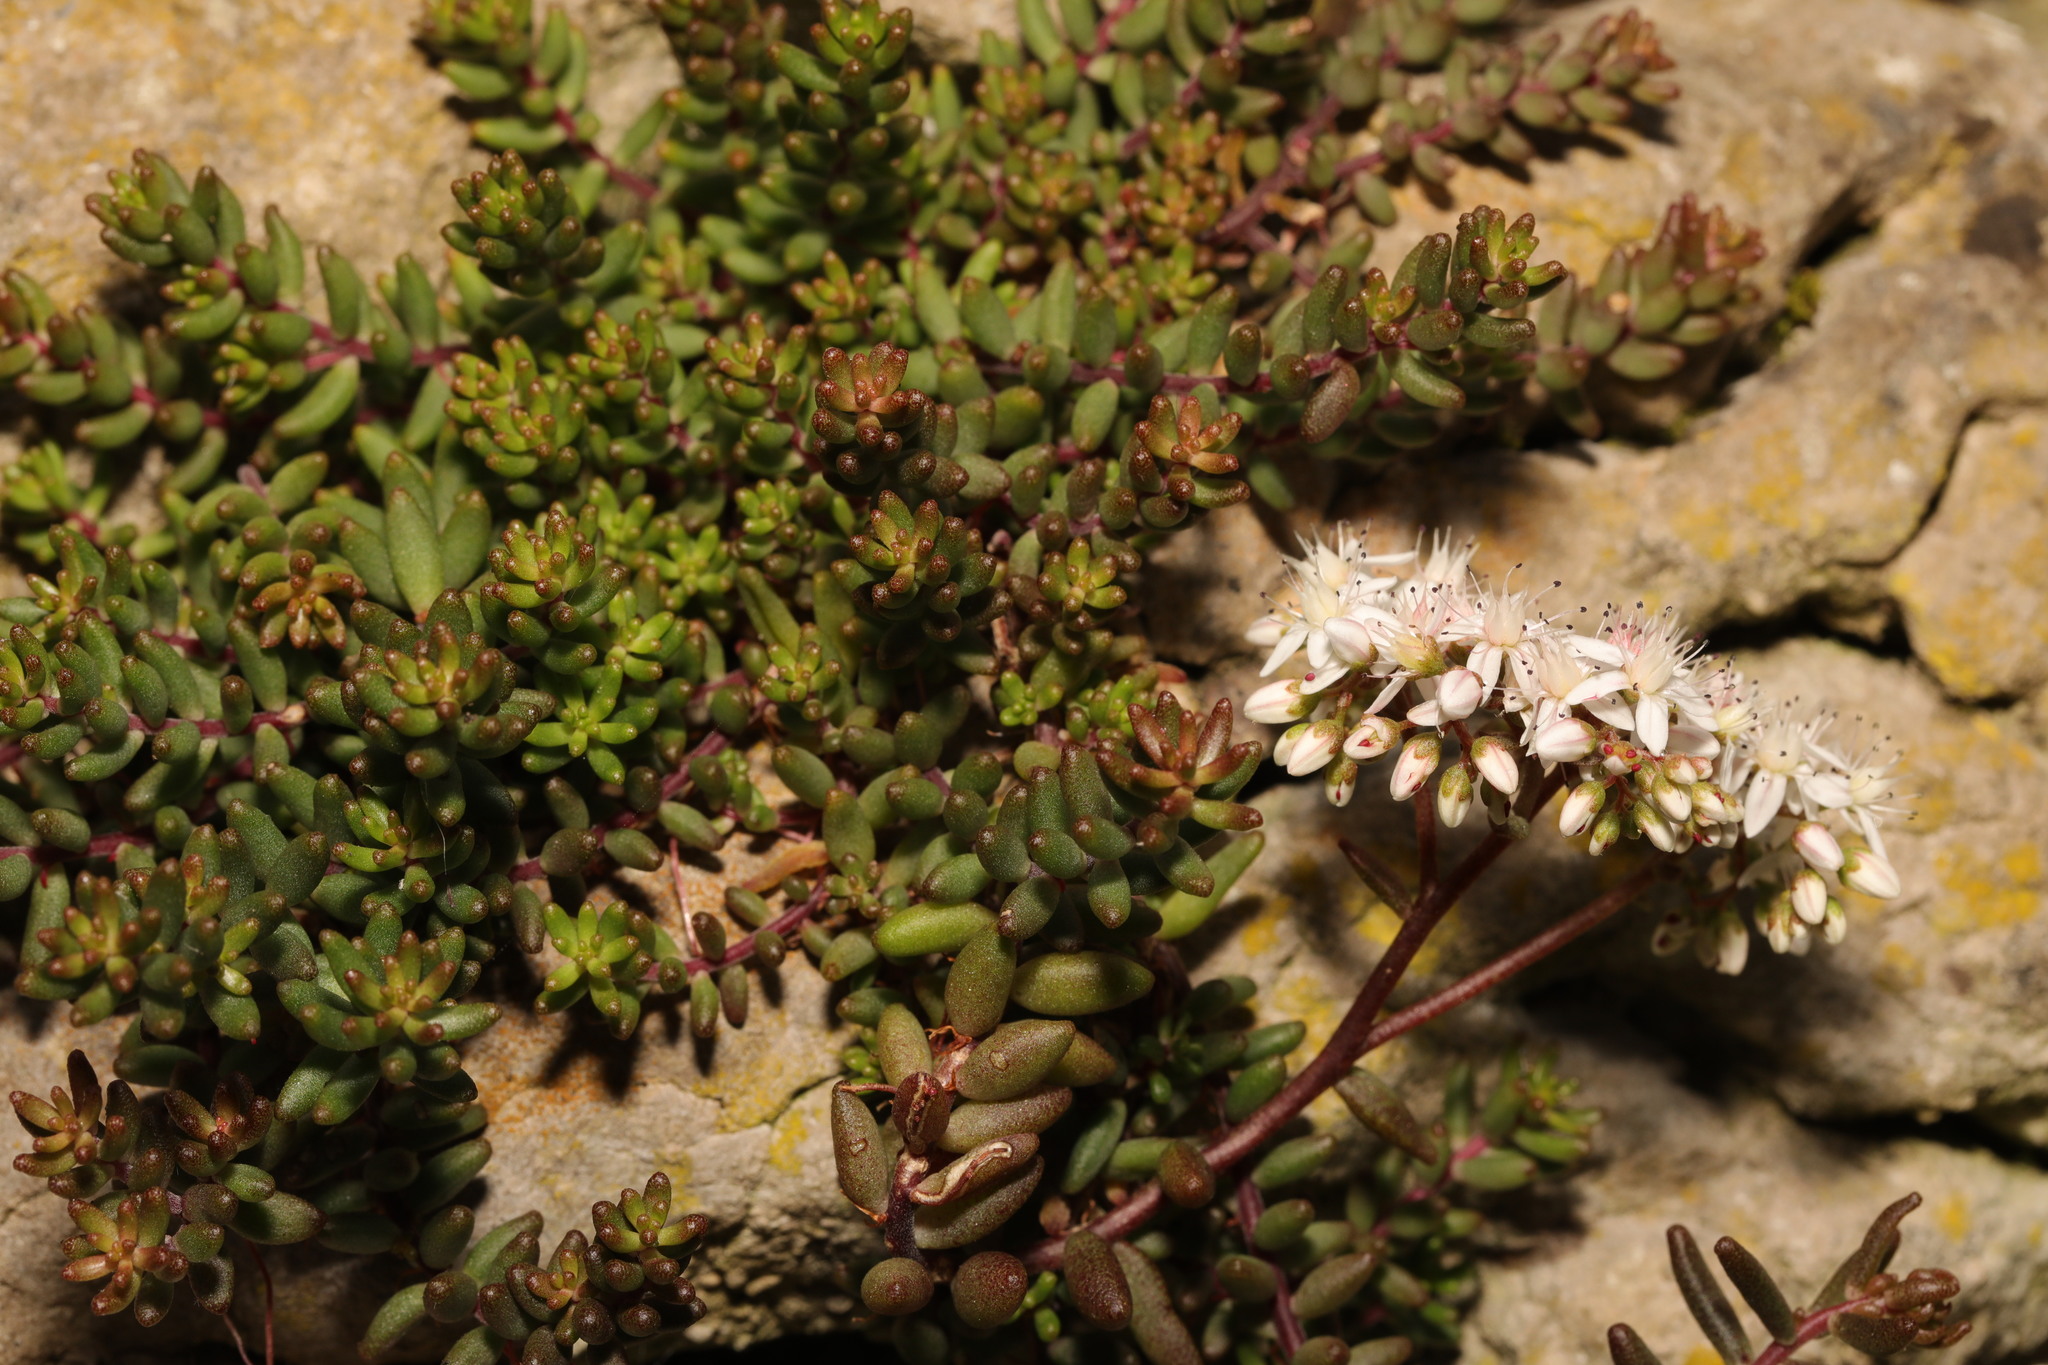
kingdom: Plantae
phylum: Tracheophyta
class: Magnoliopsida
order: Saxifragales
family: Crassulaceae
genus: Sedum
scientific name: Sedum album
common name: White stonecrop
